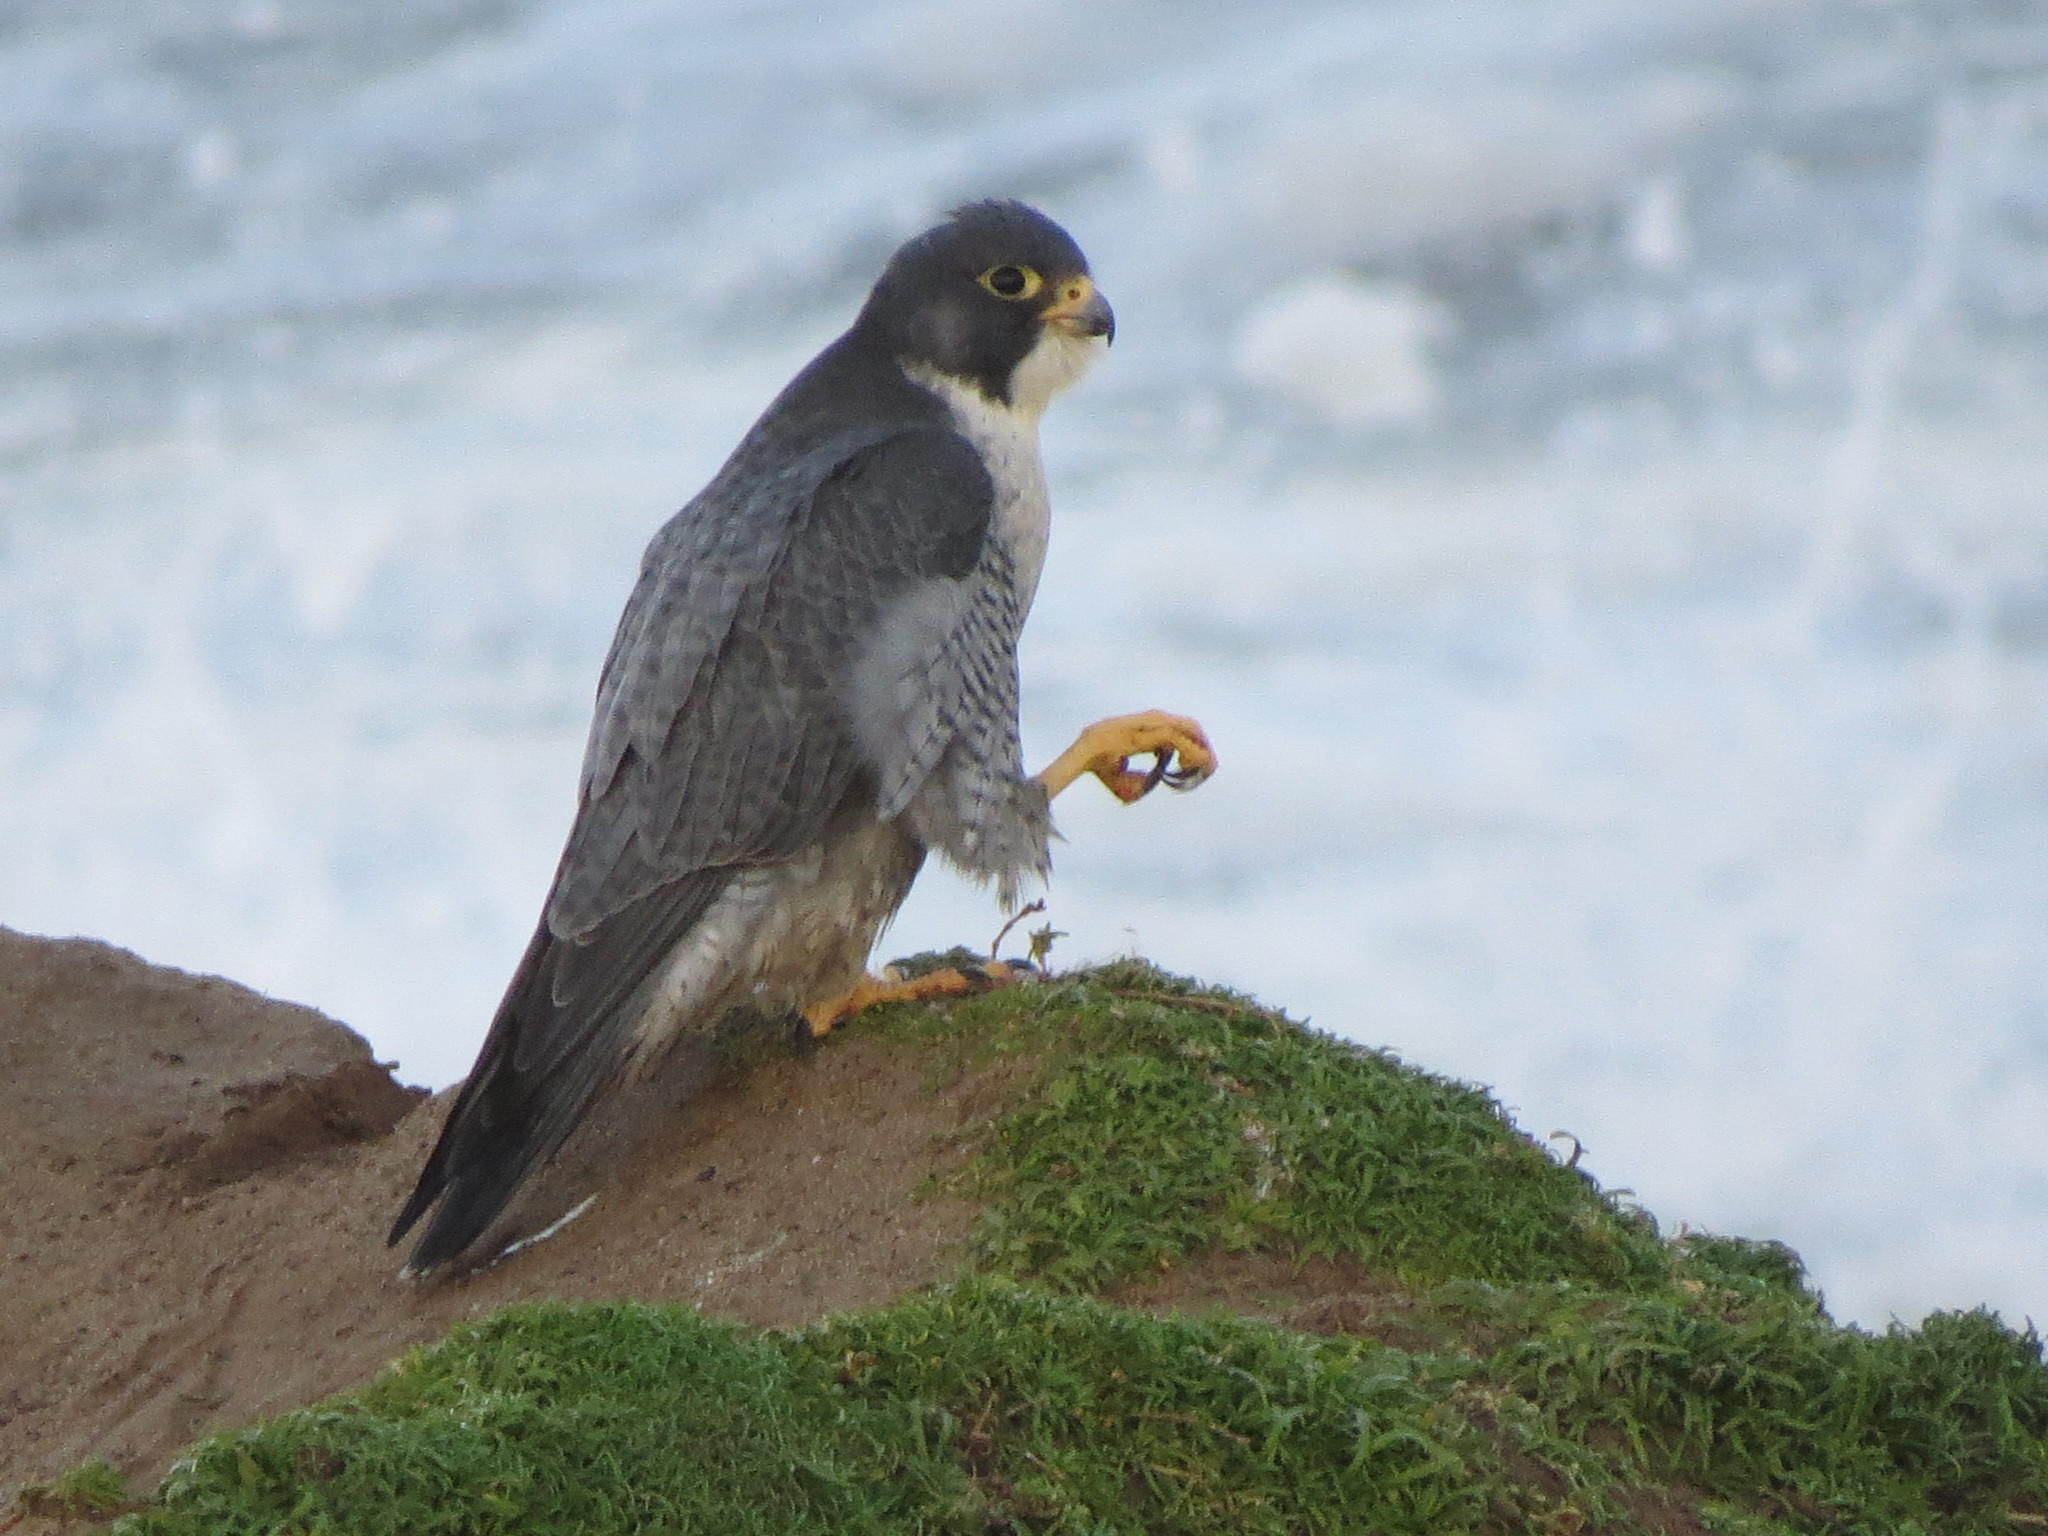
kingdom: Animalia
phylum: Chordata
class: Aves
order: Falconiformes
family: Falconidae
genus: Falco
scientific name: Falco peregrinus
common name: Peregrine falcon
